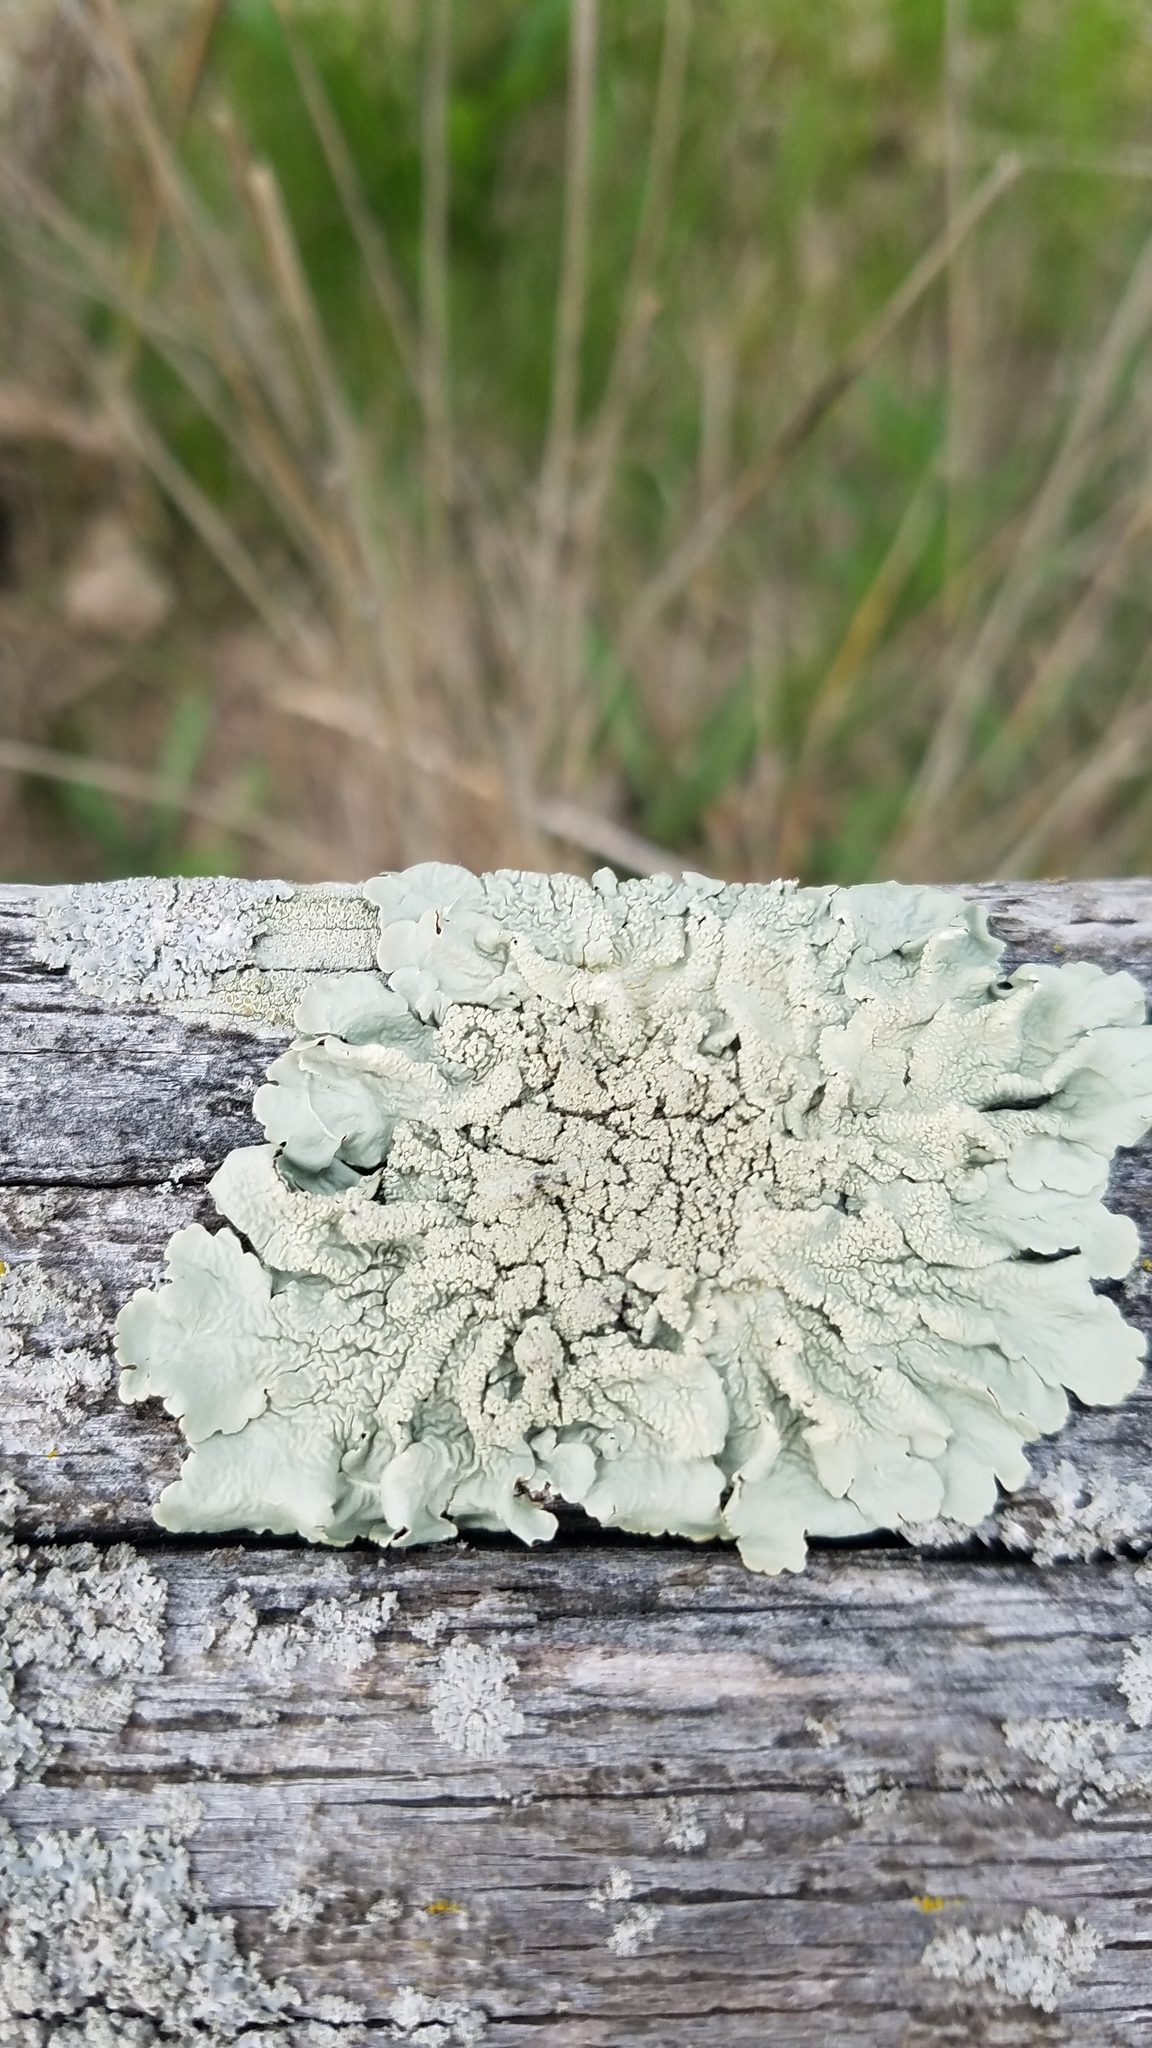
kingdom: Fungi
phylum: Ascomycota
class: Lecanoromycetes
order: Lecanorales
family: Parmeliaceae
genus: Flavoparmelia
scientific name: Flavoparmelia caperata
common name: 40-mile per hour lichen
